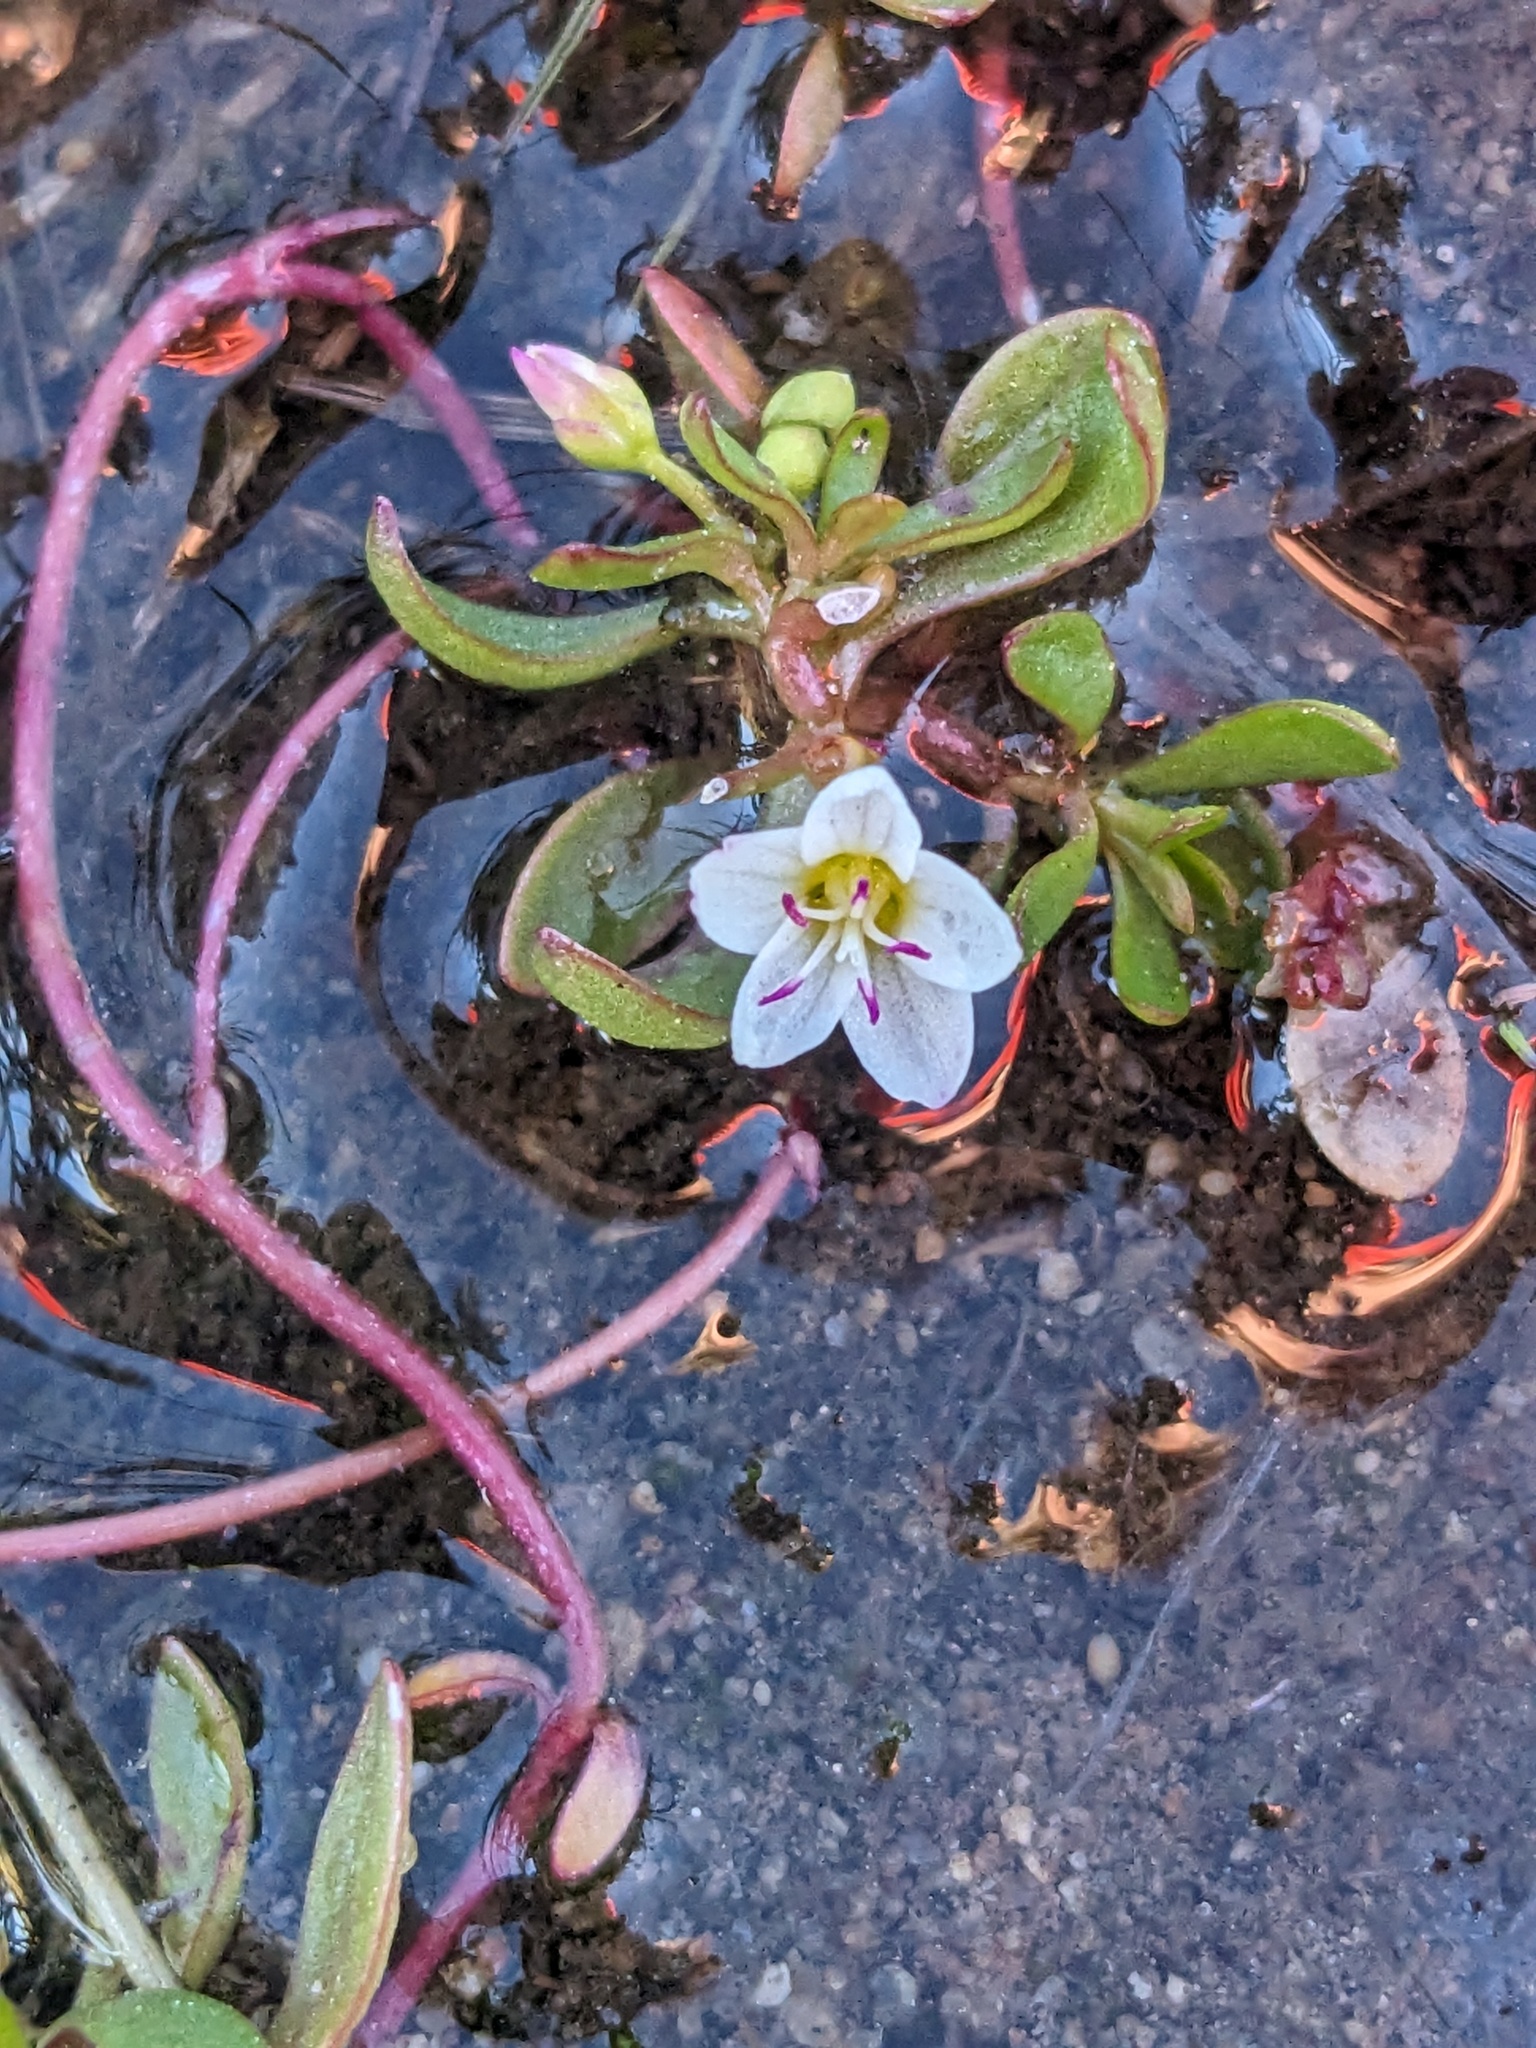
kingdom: Plantae
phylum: Tracheophyta
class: Magnoliopsida
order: Caryophyllales
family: Montiaceae
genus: Montia
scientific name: Montia chamissoi
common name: Chamisso's candyflower
